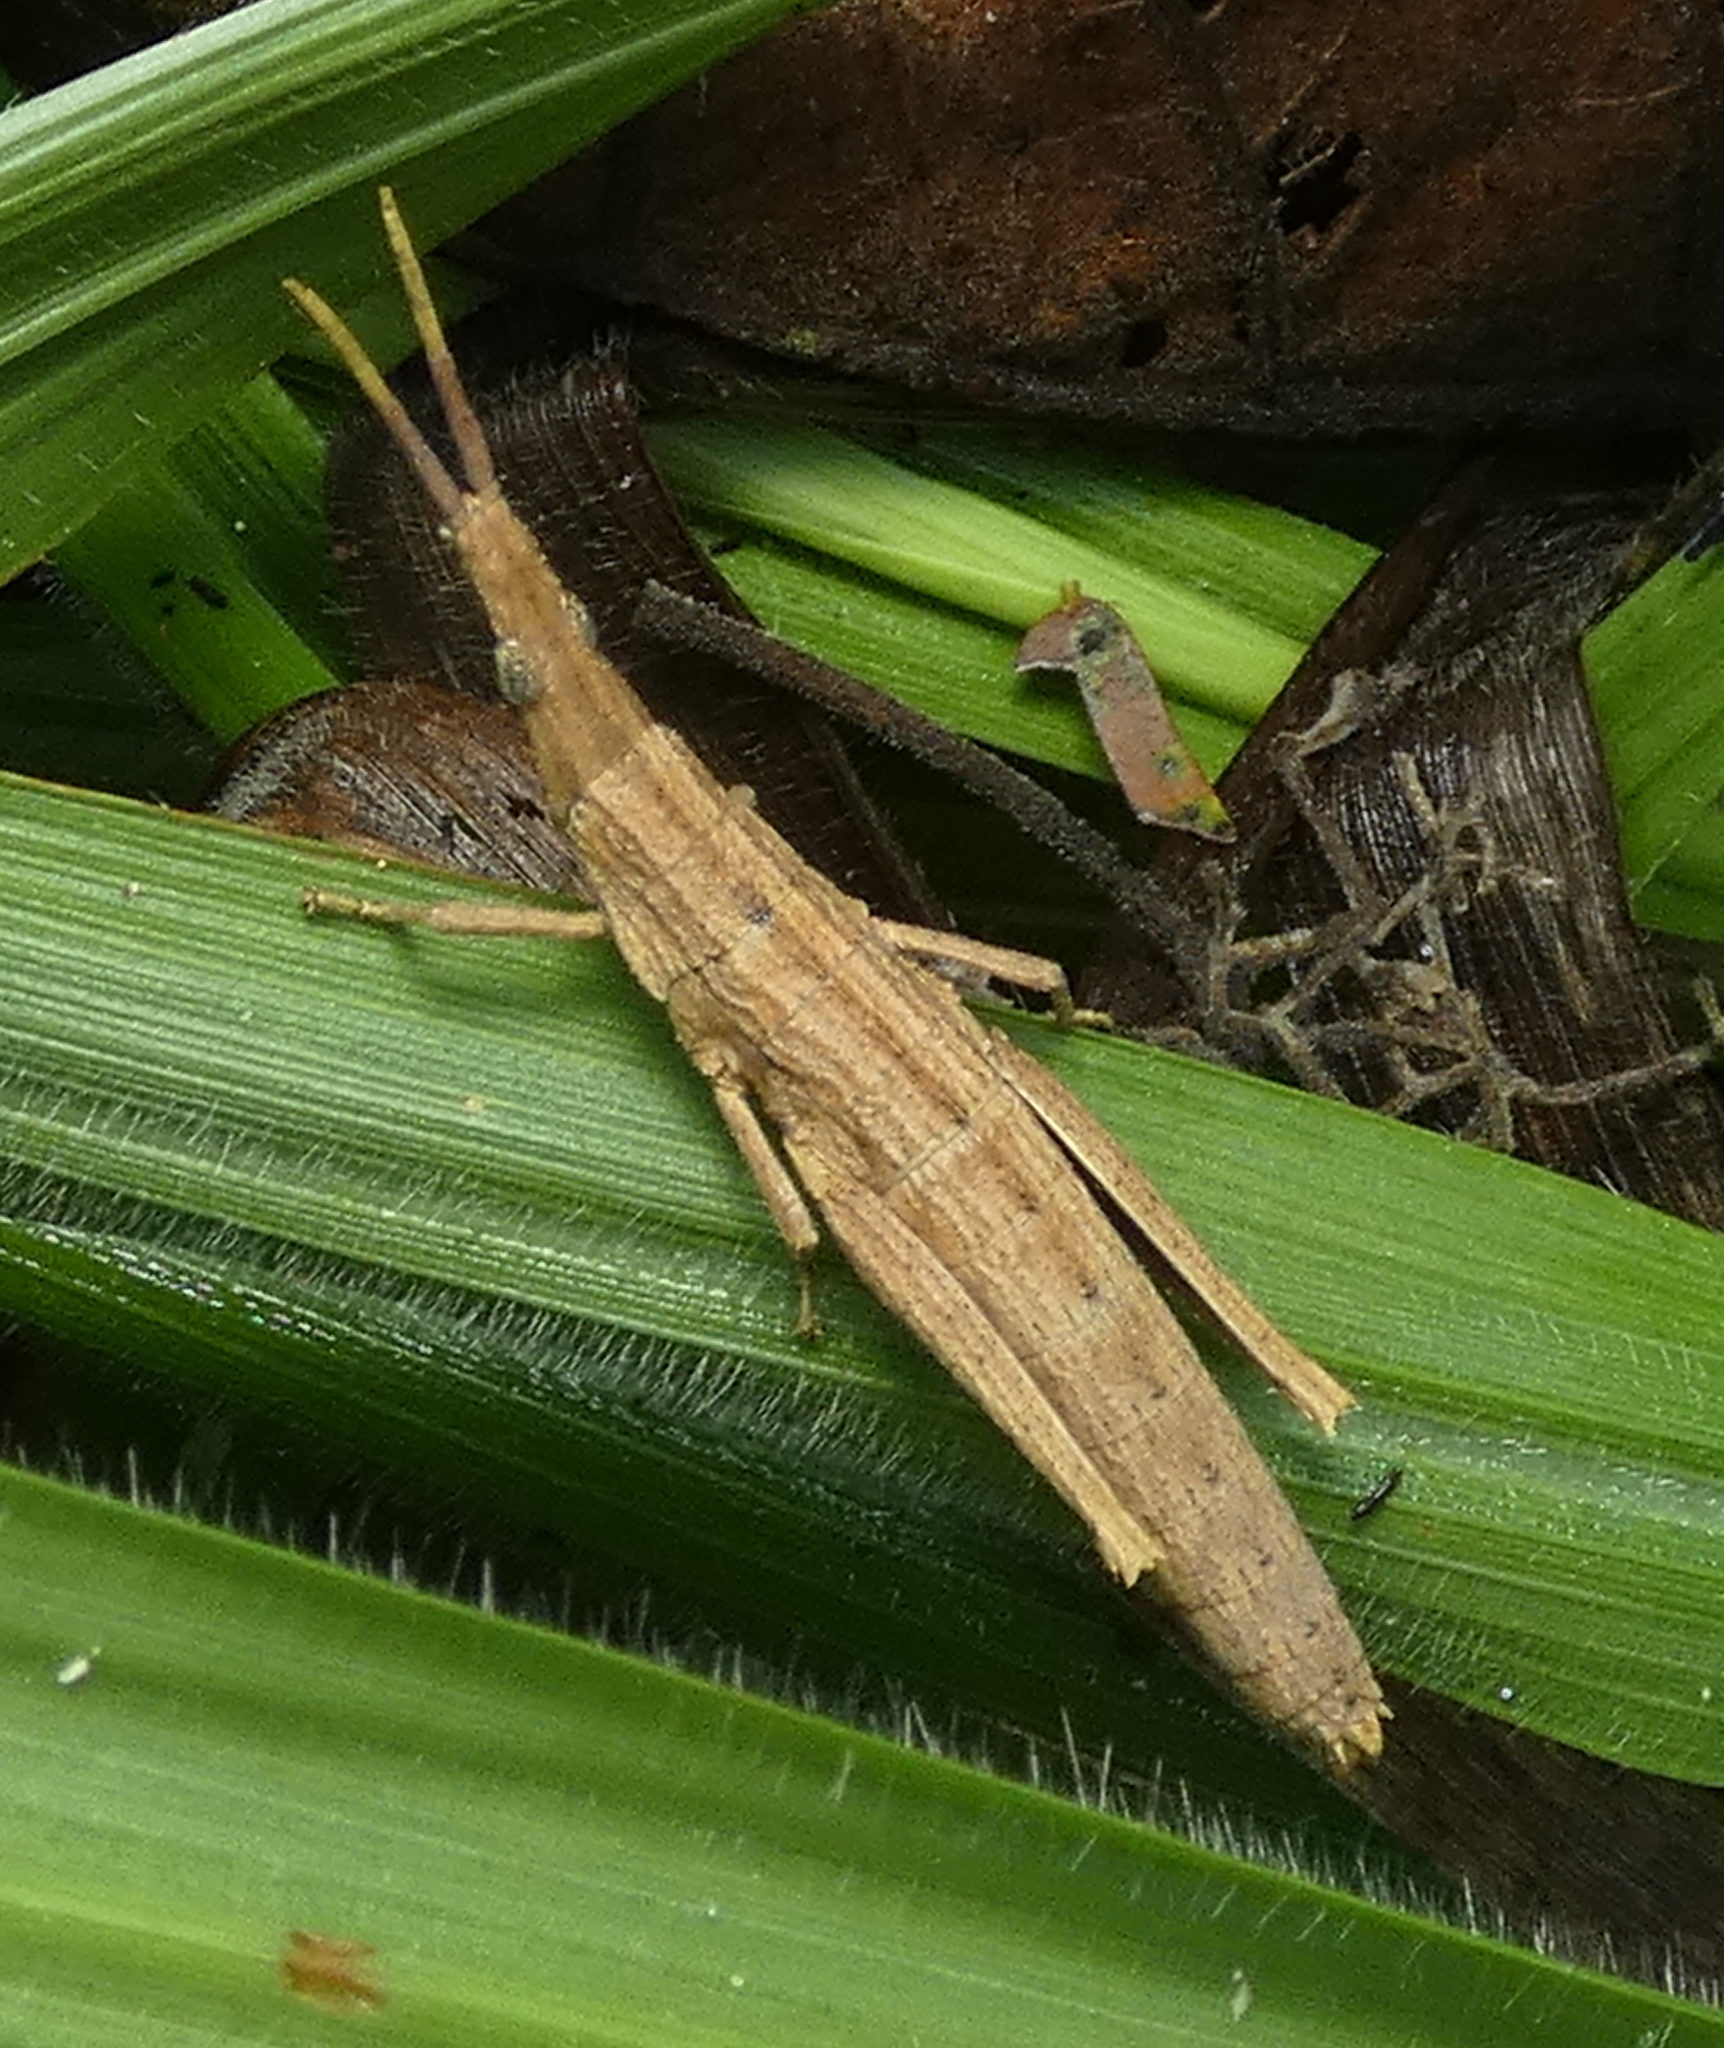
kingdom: Animalia
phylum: Arthropoda
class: Insecta
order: Orthoptera
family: Pyrgomorphidae
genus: Algete
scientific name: Algete brunneri
